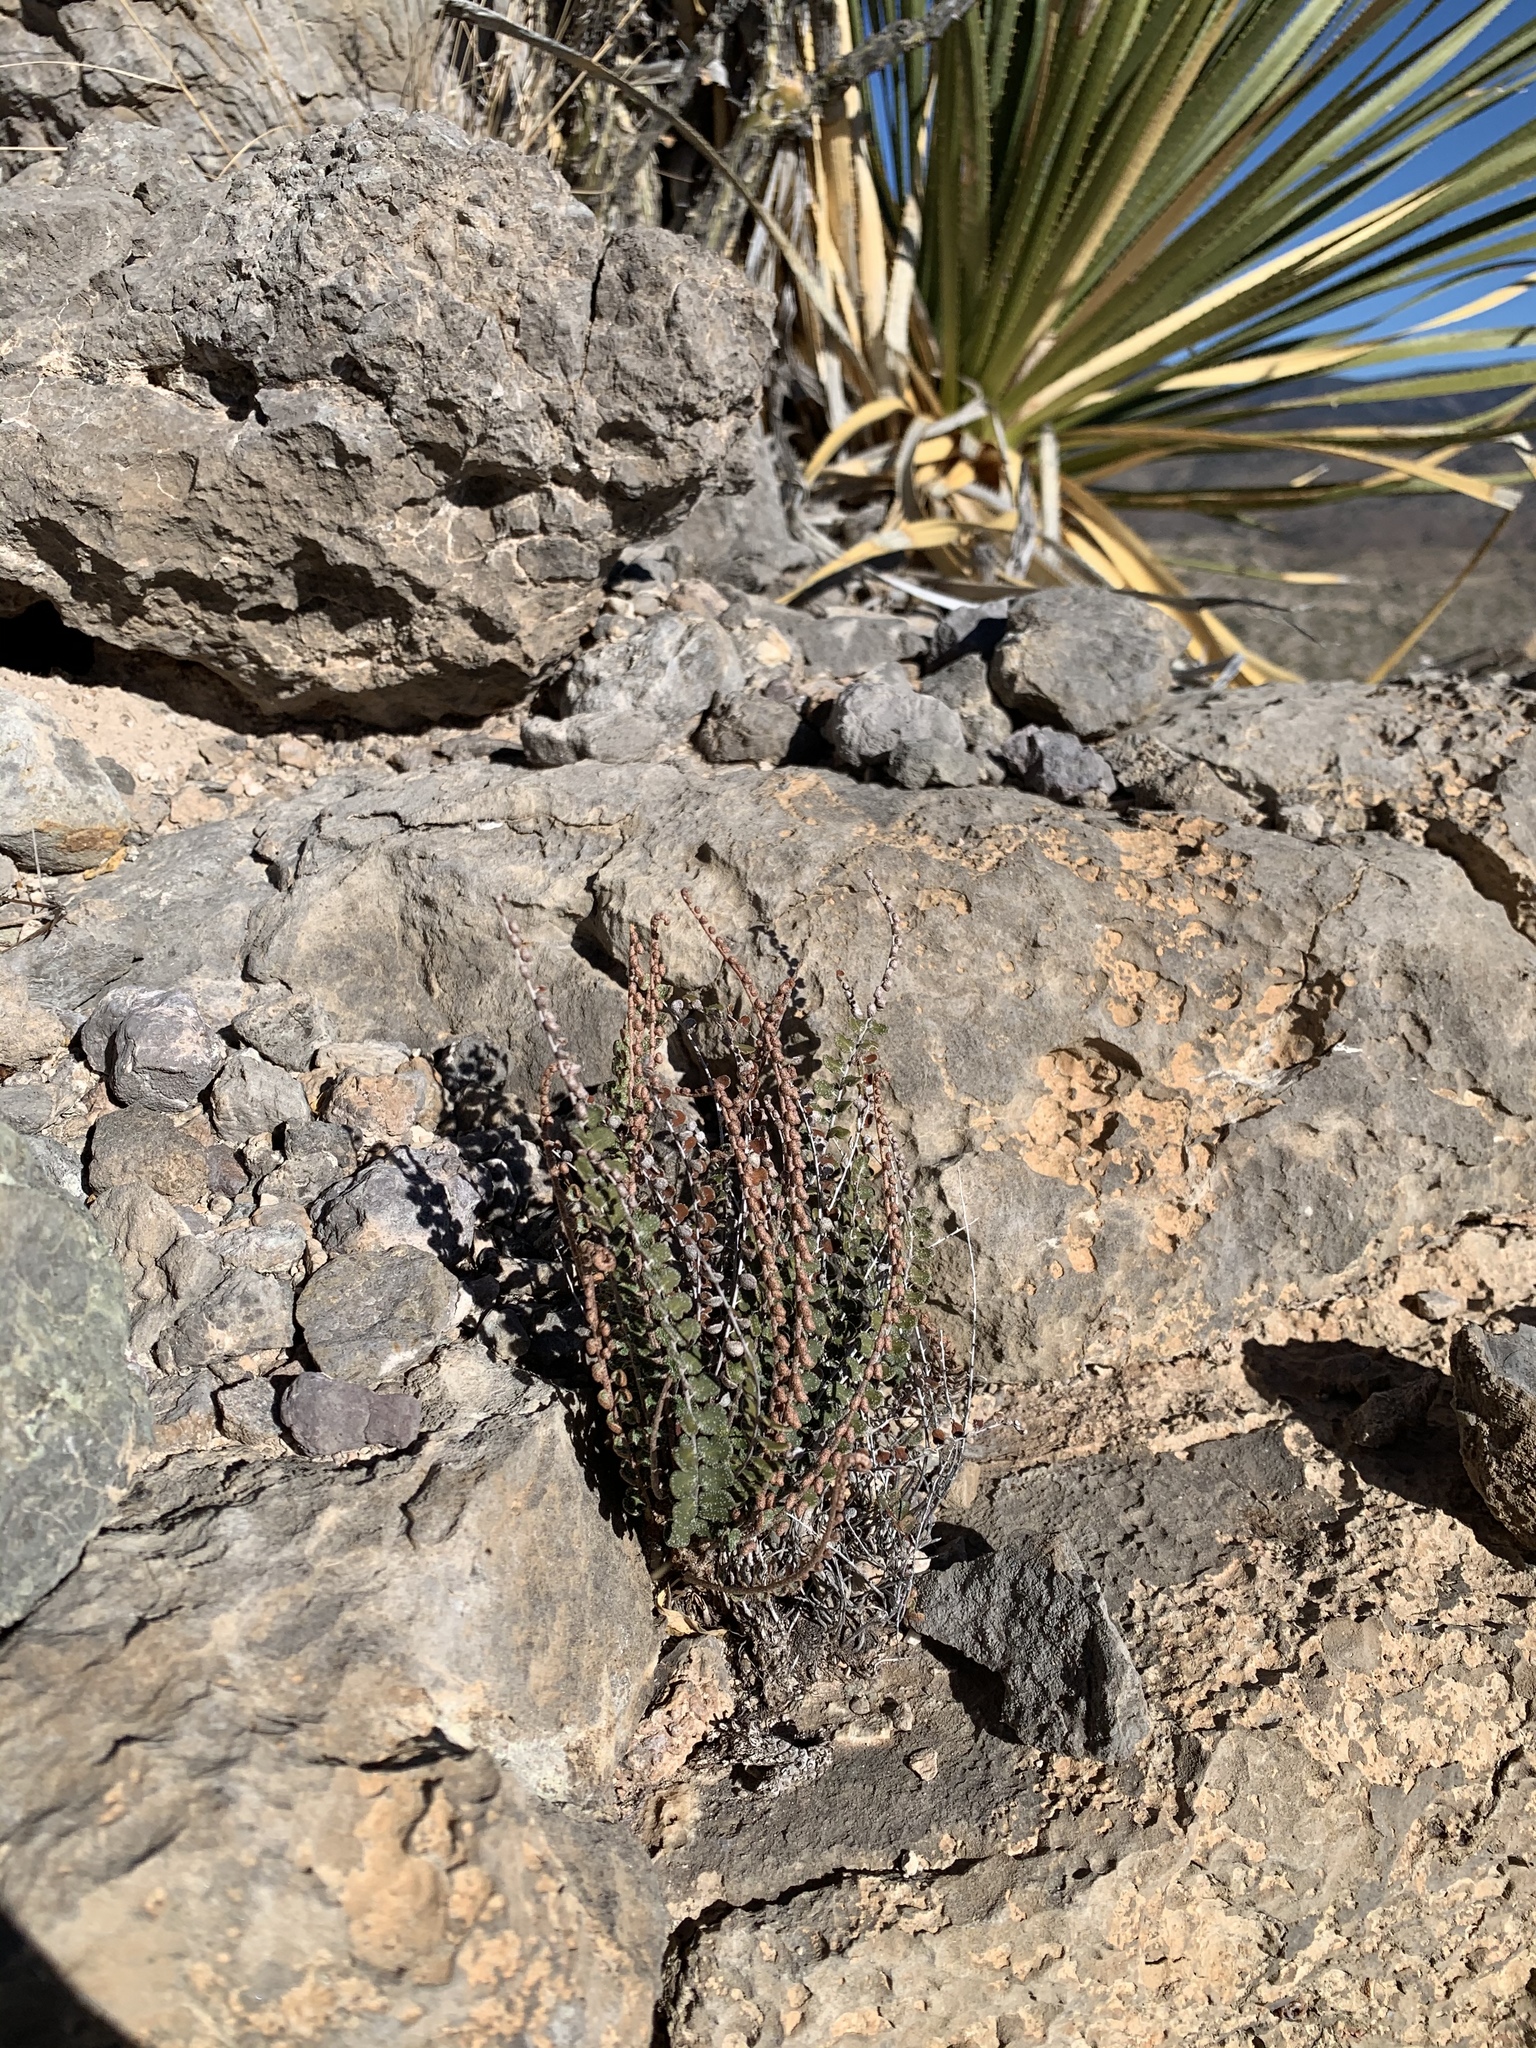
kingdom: Plantae
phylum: Tracheophyta
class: Polypodiopsida
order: Polypodiales
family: Pteridaceae
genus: Astrolepis
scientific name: Astrolepis cochisensis
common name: Scaly cloak fern
